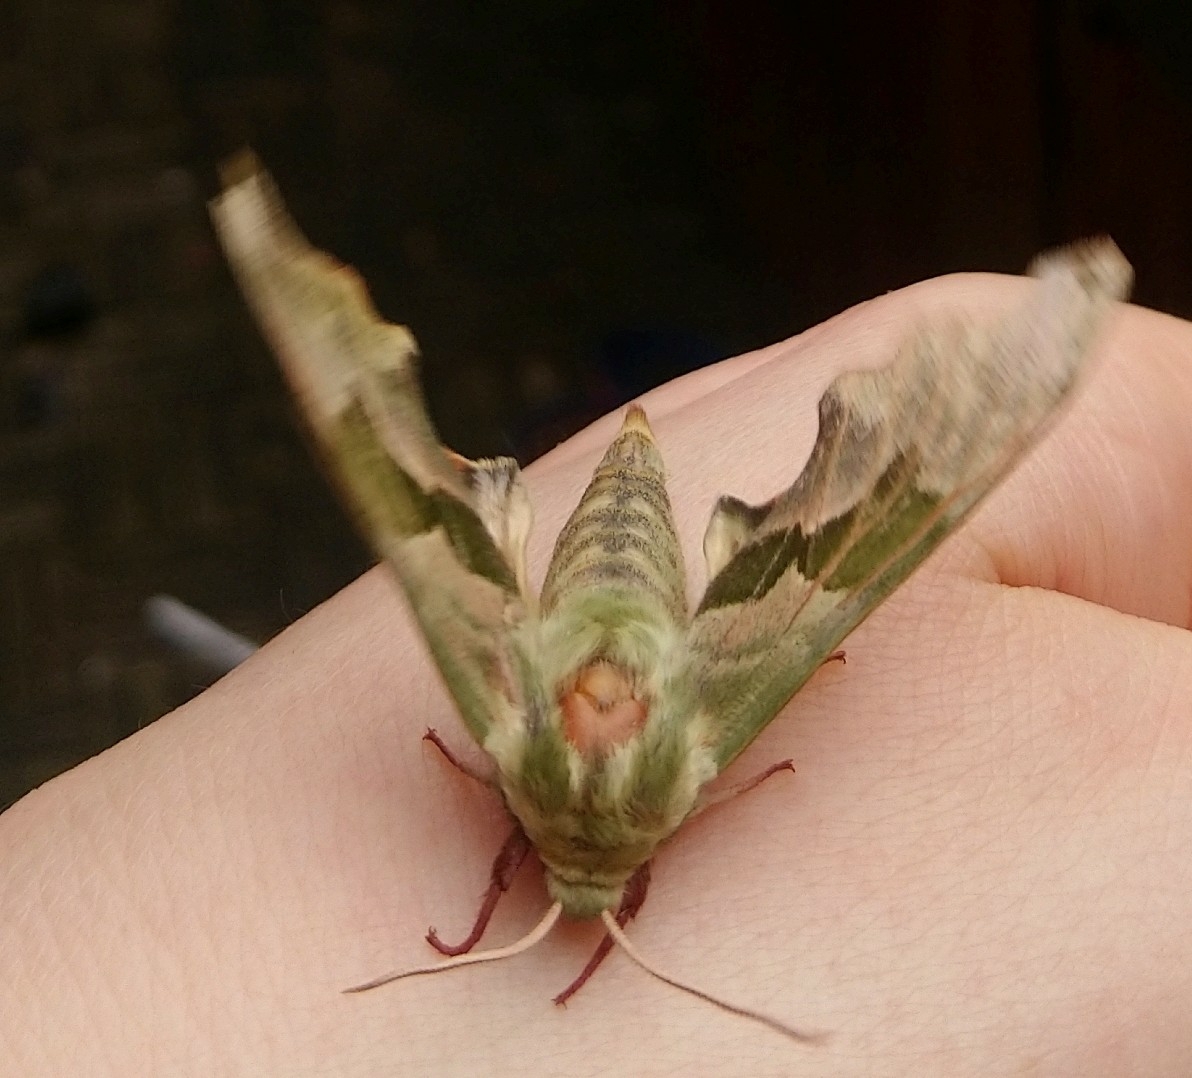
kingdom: Animalia
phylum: Arthropoda
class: Insecta
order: Lepidoptera
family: Sphingidae
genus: Mimas
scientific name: Mimas tiliae
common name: Lime hawk-moth
